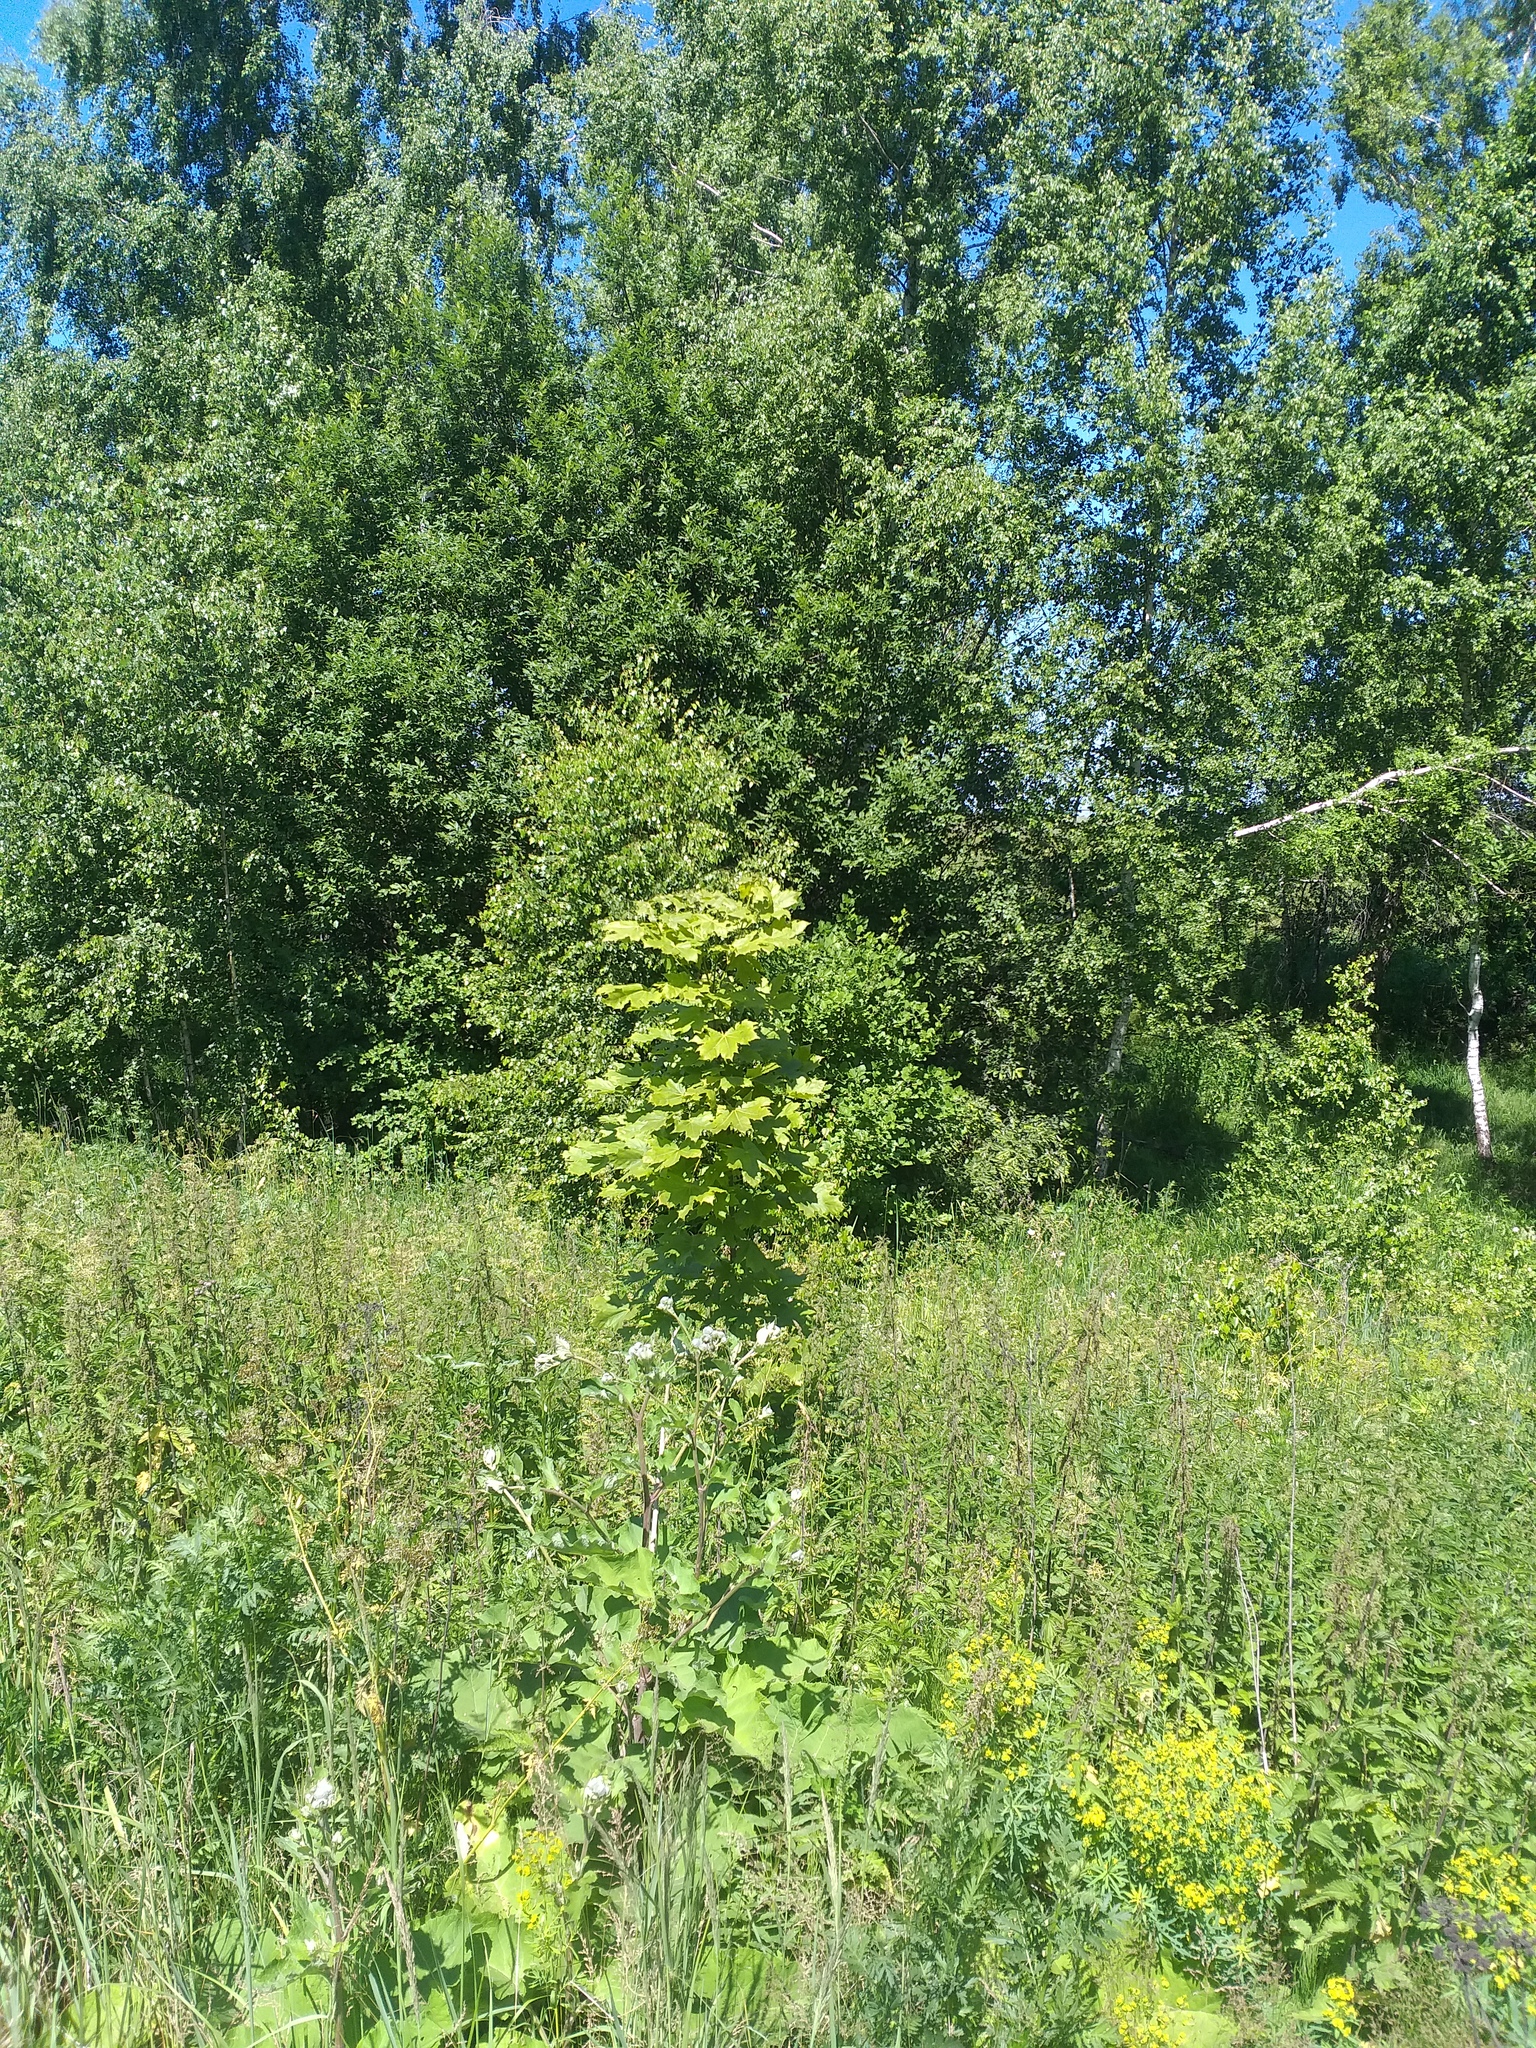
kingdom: Plantae
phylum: Tracheophyta
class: Magnoliopsida
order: Sapindales
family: Sapindaceae
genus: Acer
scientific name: Acer platanoides
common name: Norway maple
